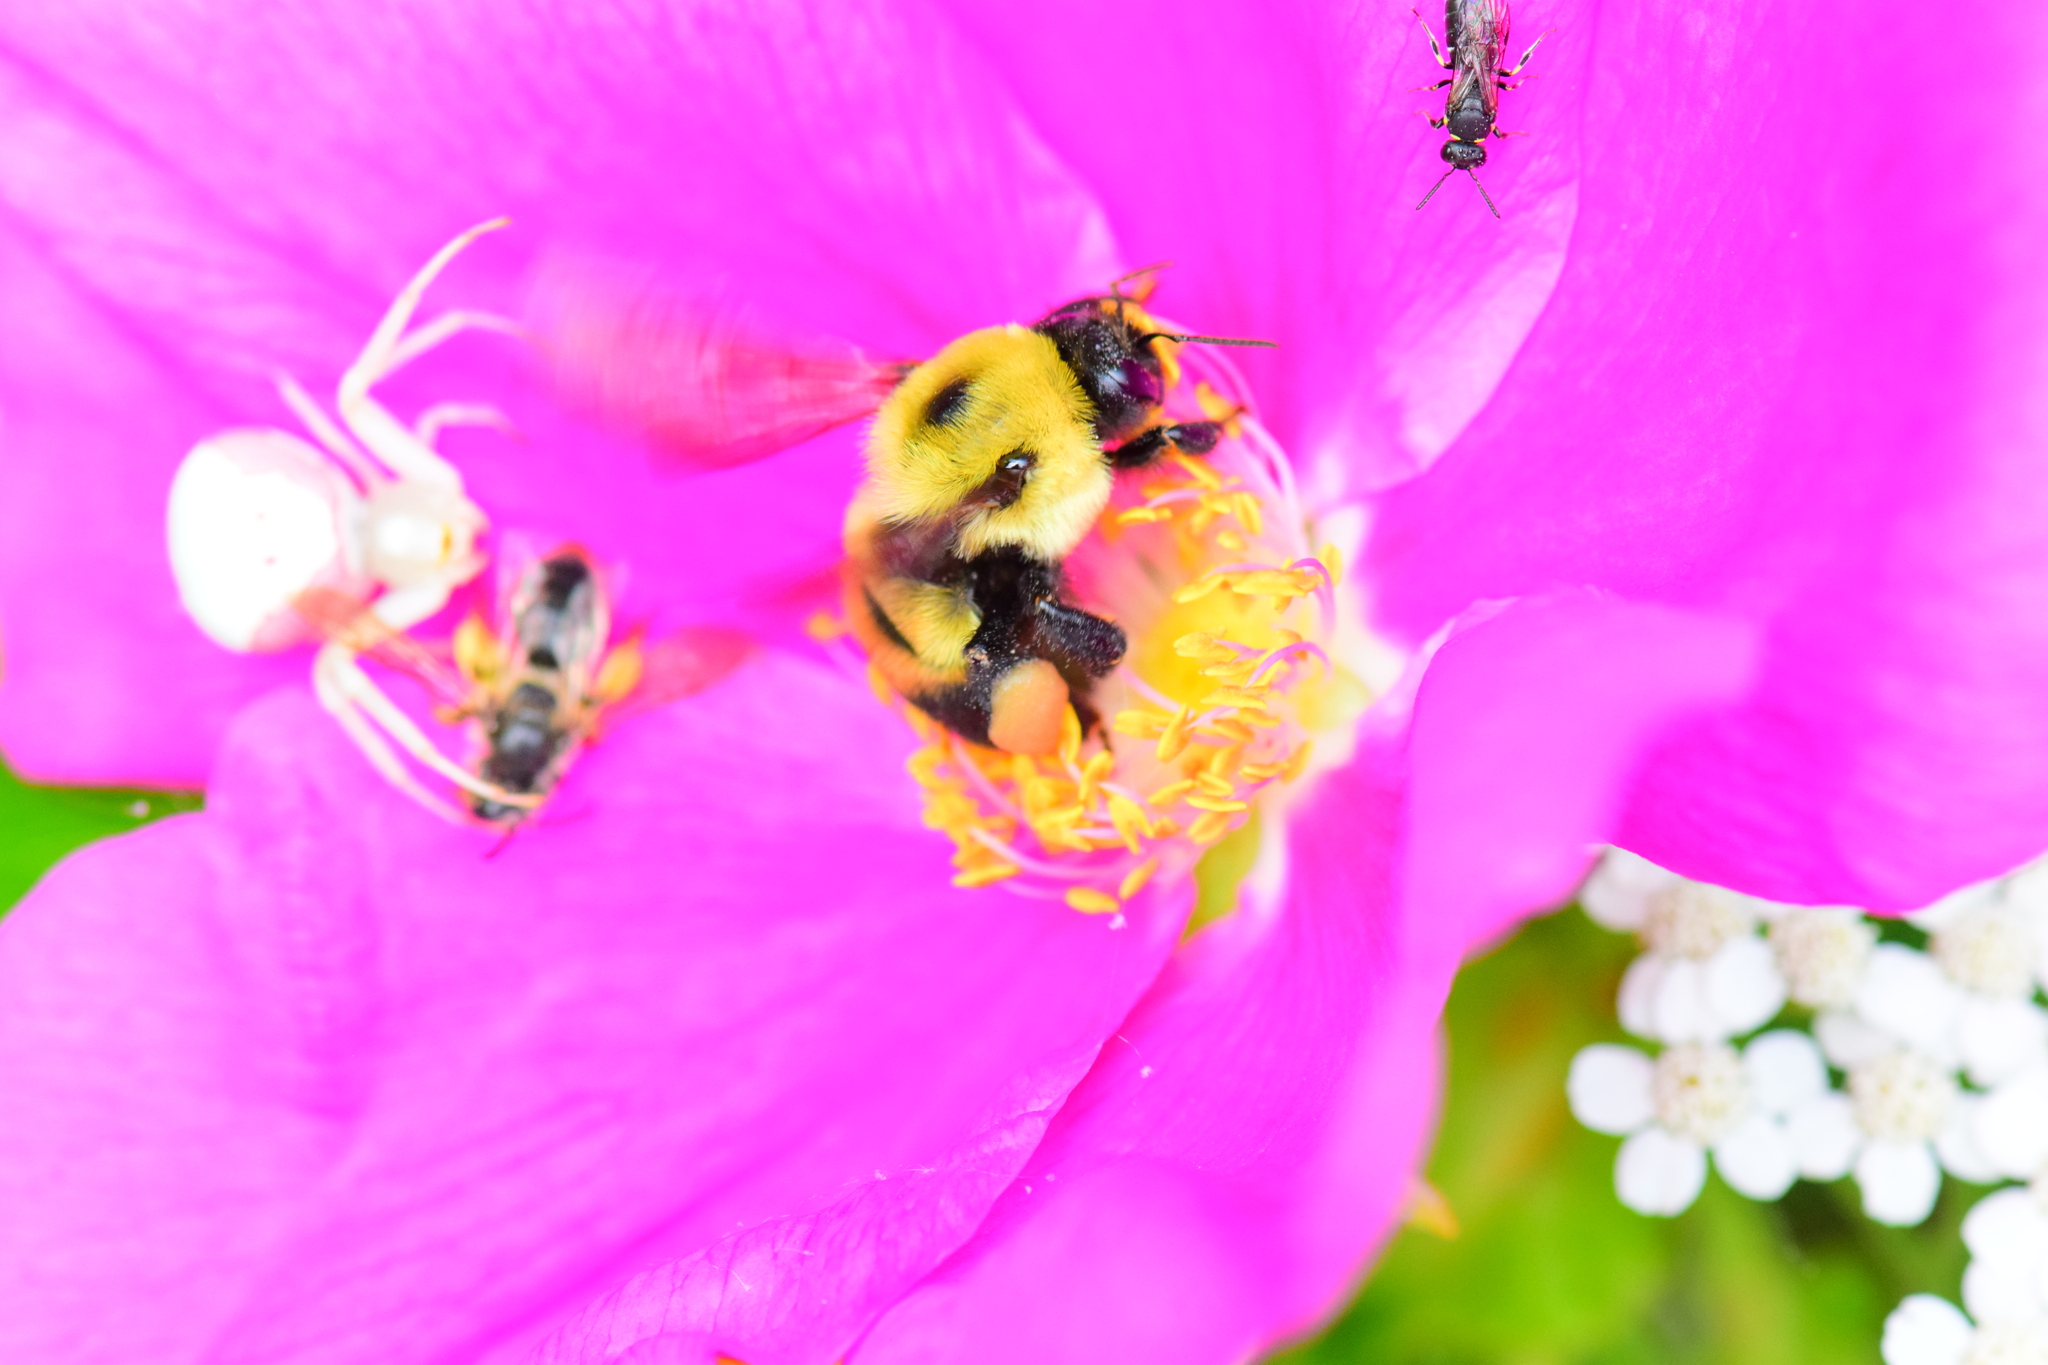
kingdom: Animalia
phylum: Arthropoda
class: Insecta
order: Hymenoptera
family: Apidae
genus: Bombus
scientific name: Bombus griseocollis
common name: Brown-belted bumble bee
